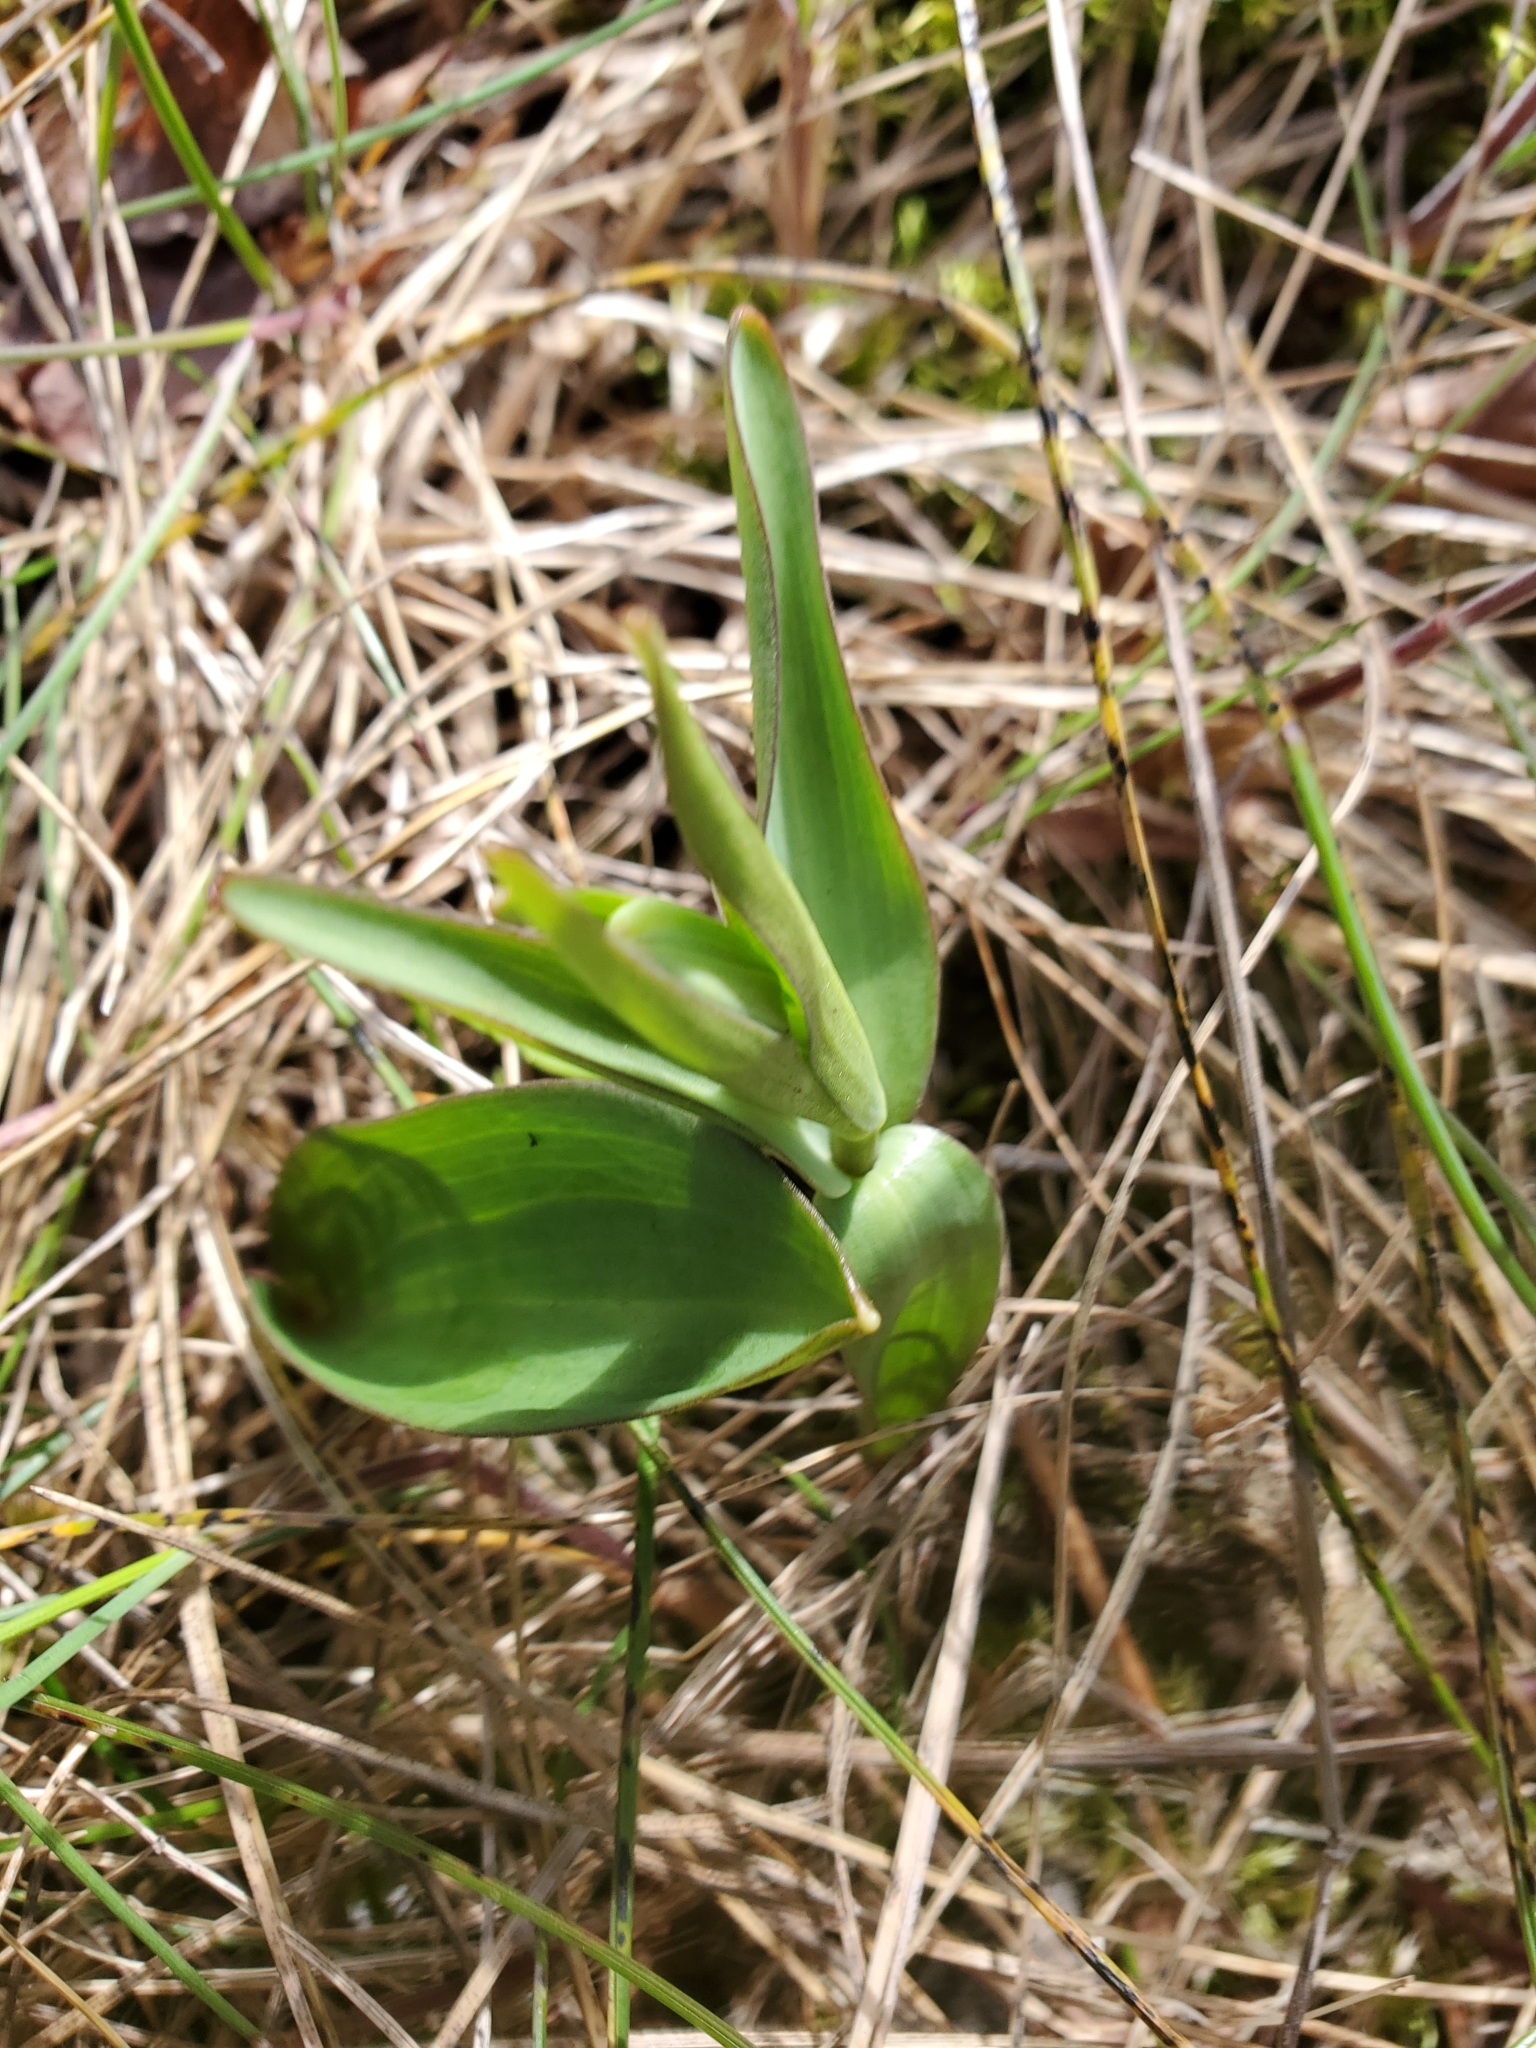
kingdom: Plantae
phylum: Tracheophyta
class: Liliopsida
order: Liliales
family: Liliaceae
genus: Fritillaria
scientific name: Fritillaria affinis
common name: Ojai fritillary
